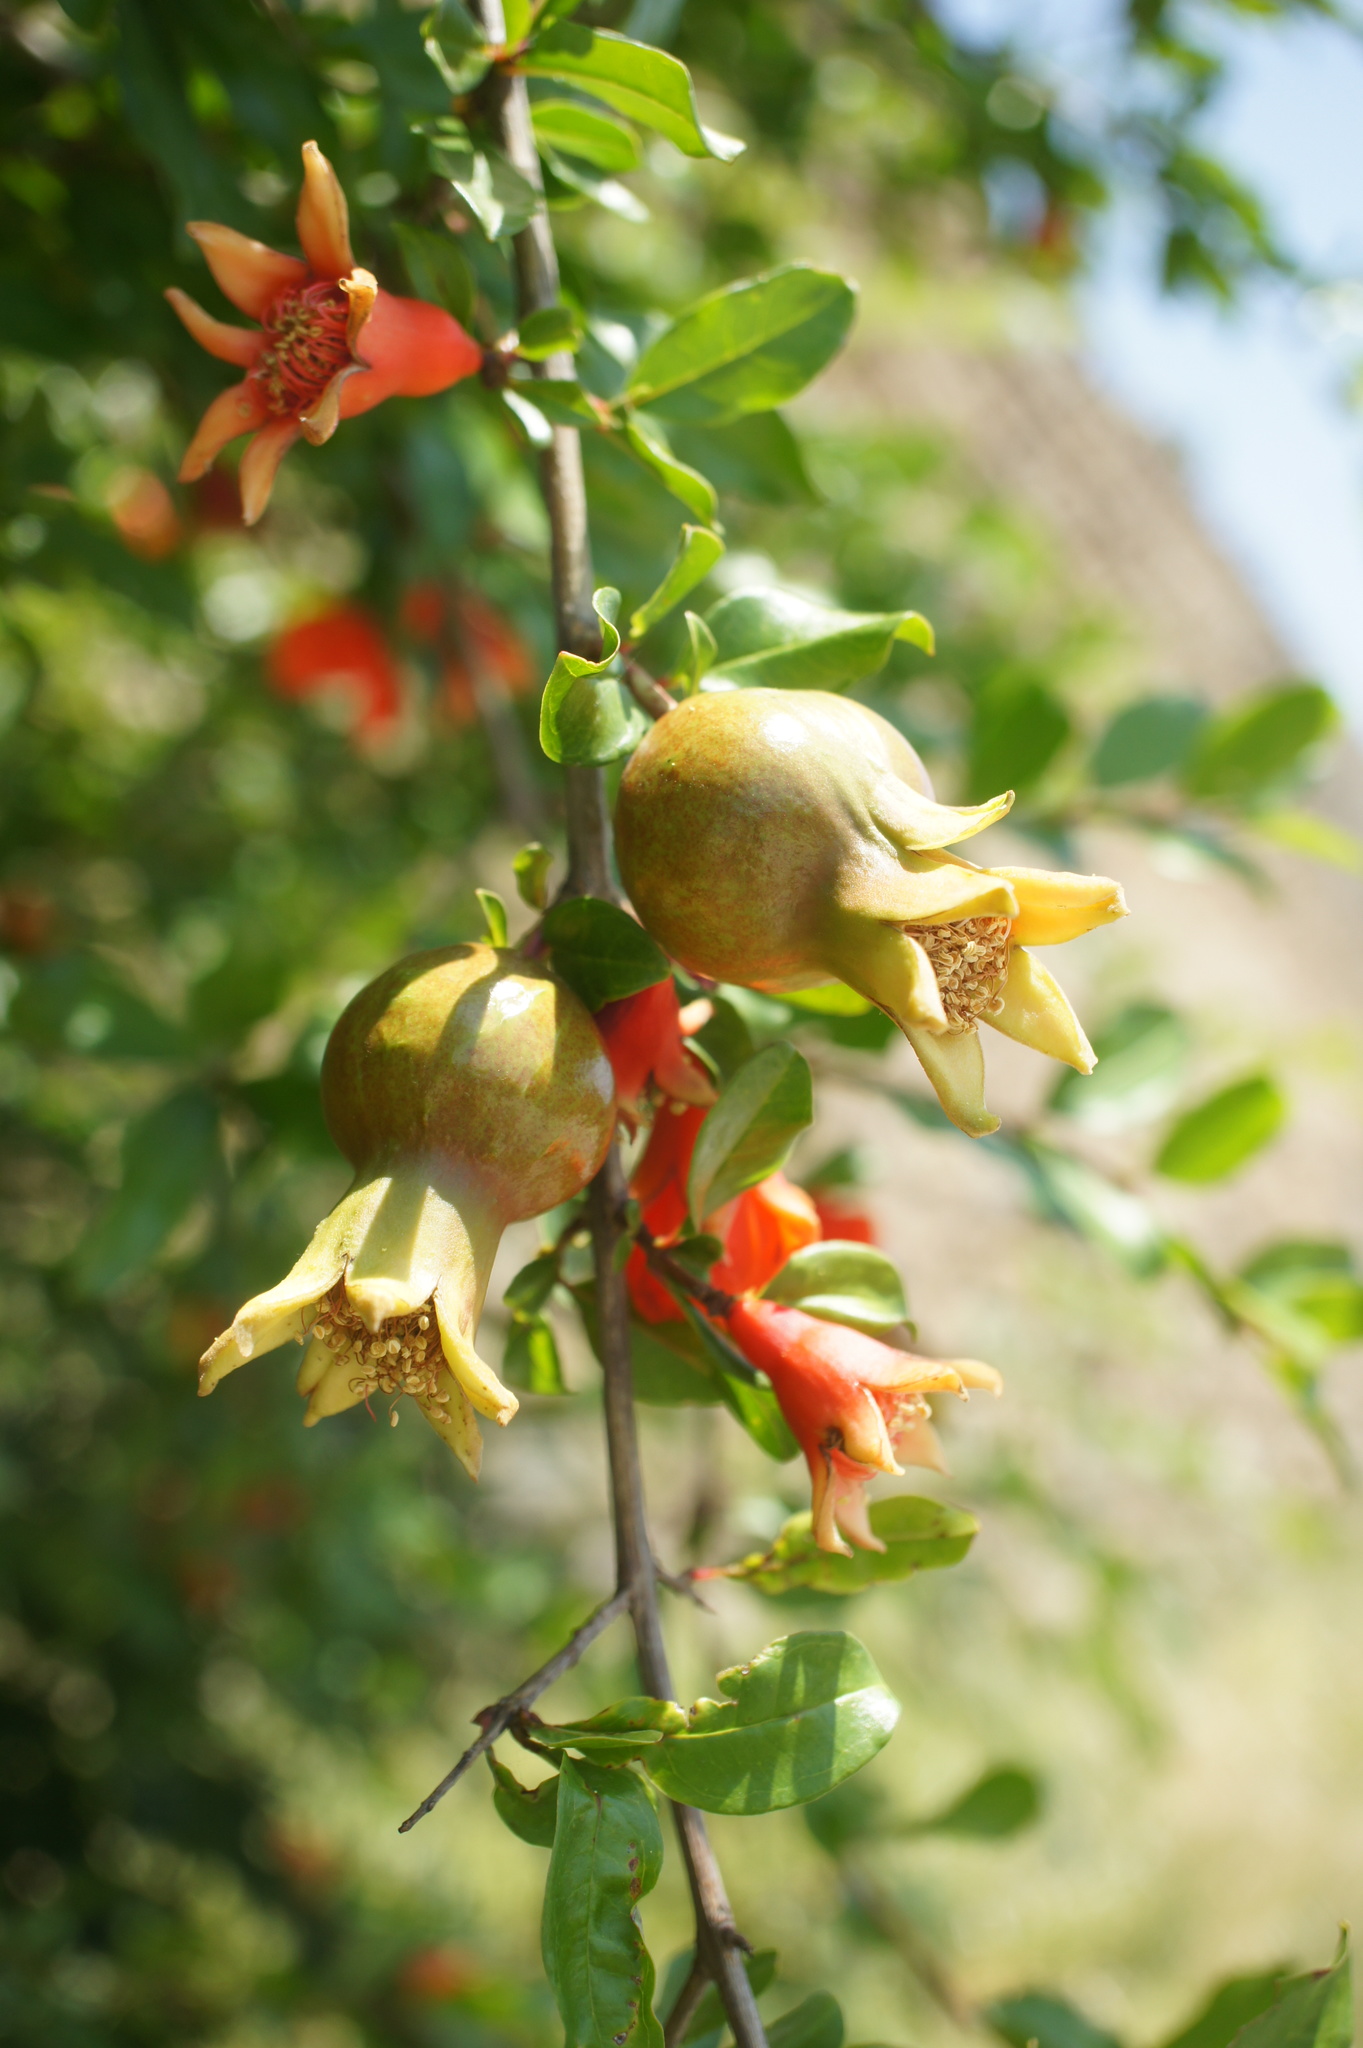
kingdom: Plantae
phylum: Tracheophyta
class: Magnoliopsida
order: Myrtales
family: Lythraceae
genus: Punica
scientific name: Punica granatum
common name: Pomegranate
